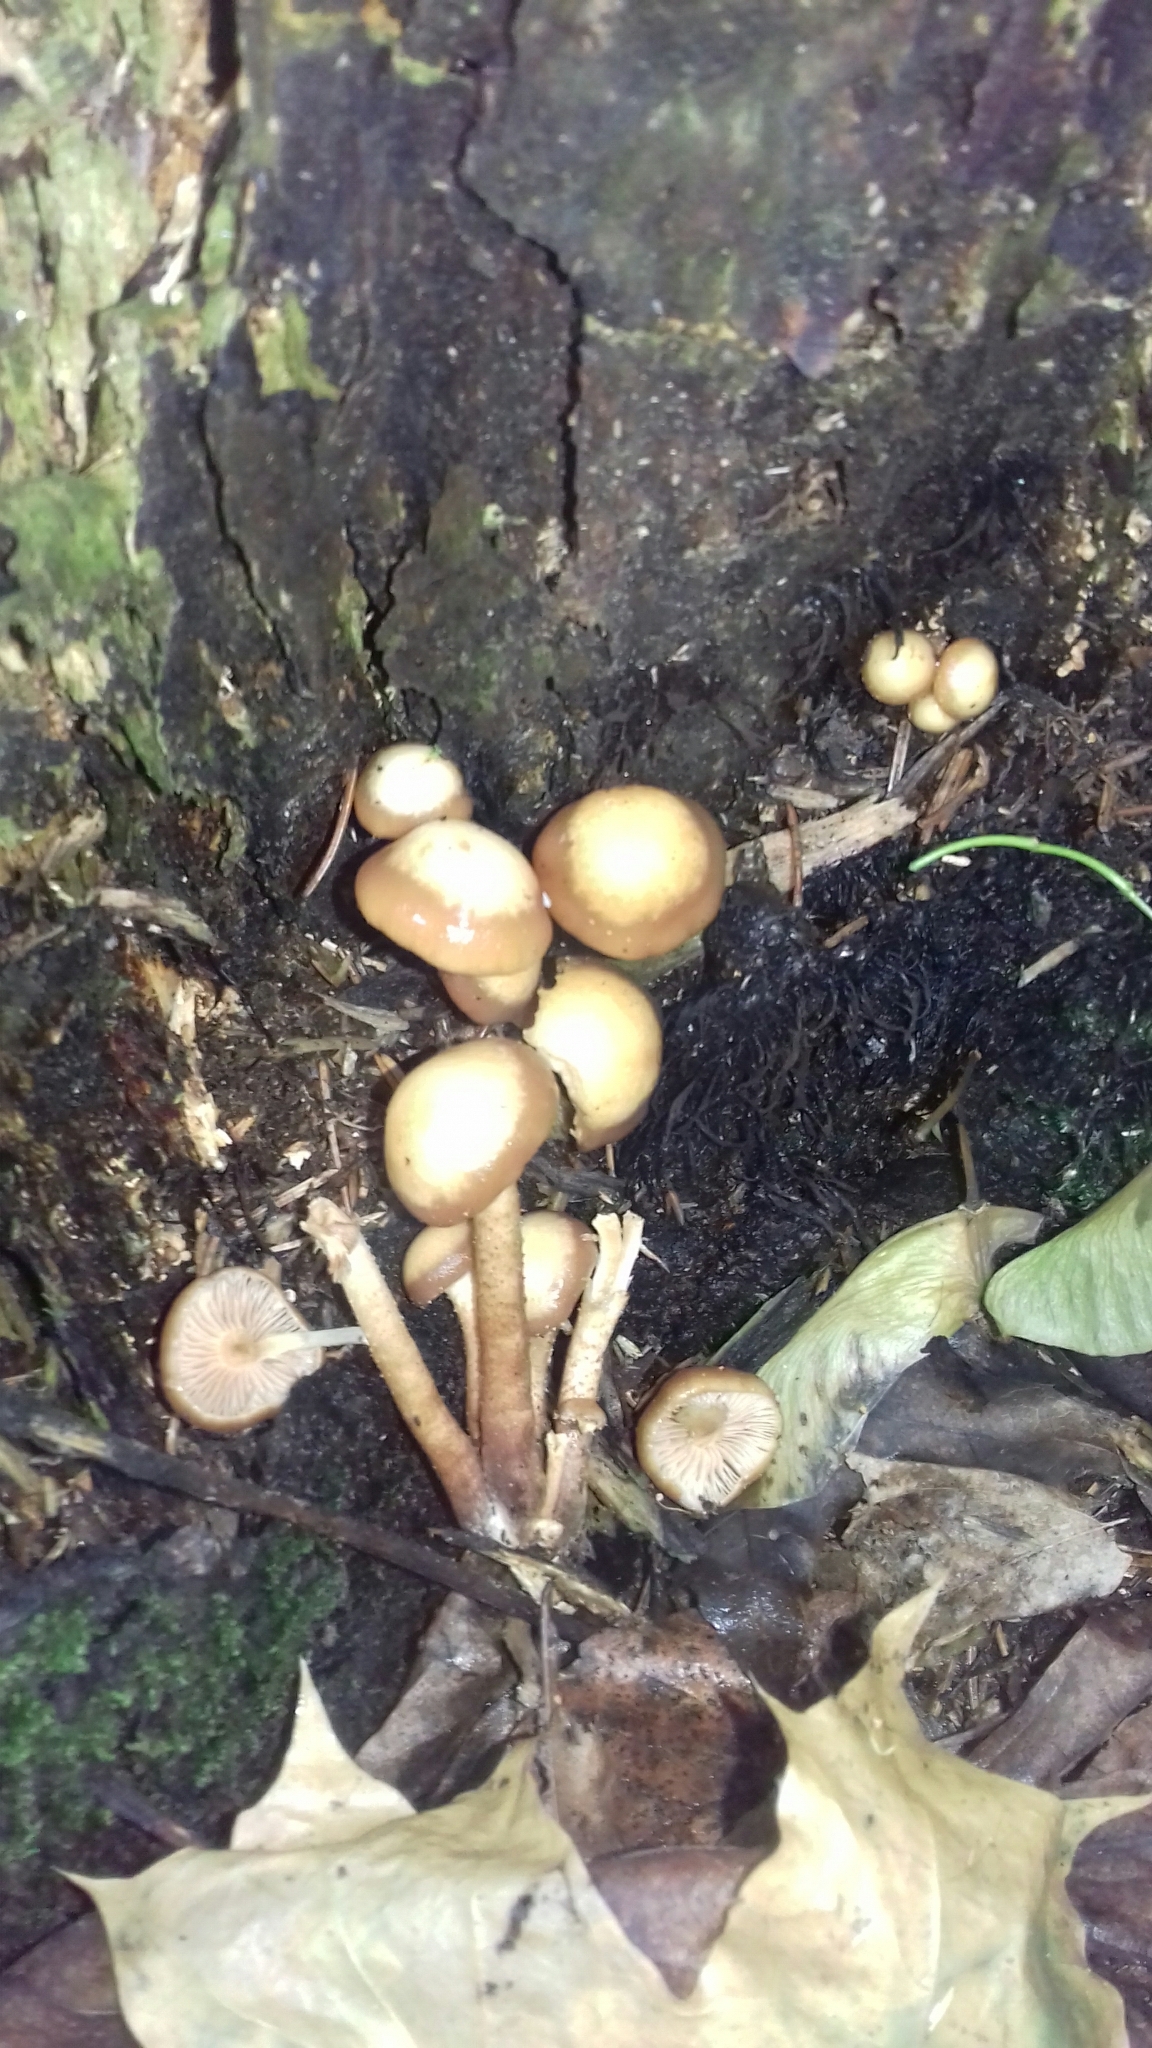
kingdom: Fungi
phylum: Basidiomycota
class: Agaricomycetes
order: Agaricales
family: Strophariaceae
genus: Kuehneromyces
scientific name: Kuehneromyces mutabilis
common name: Sheathed woodtuft
